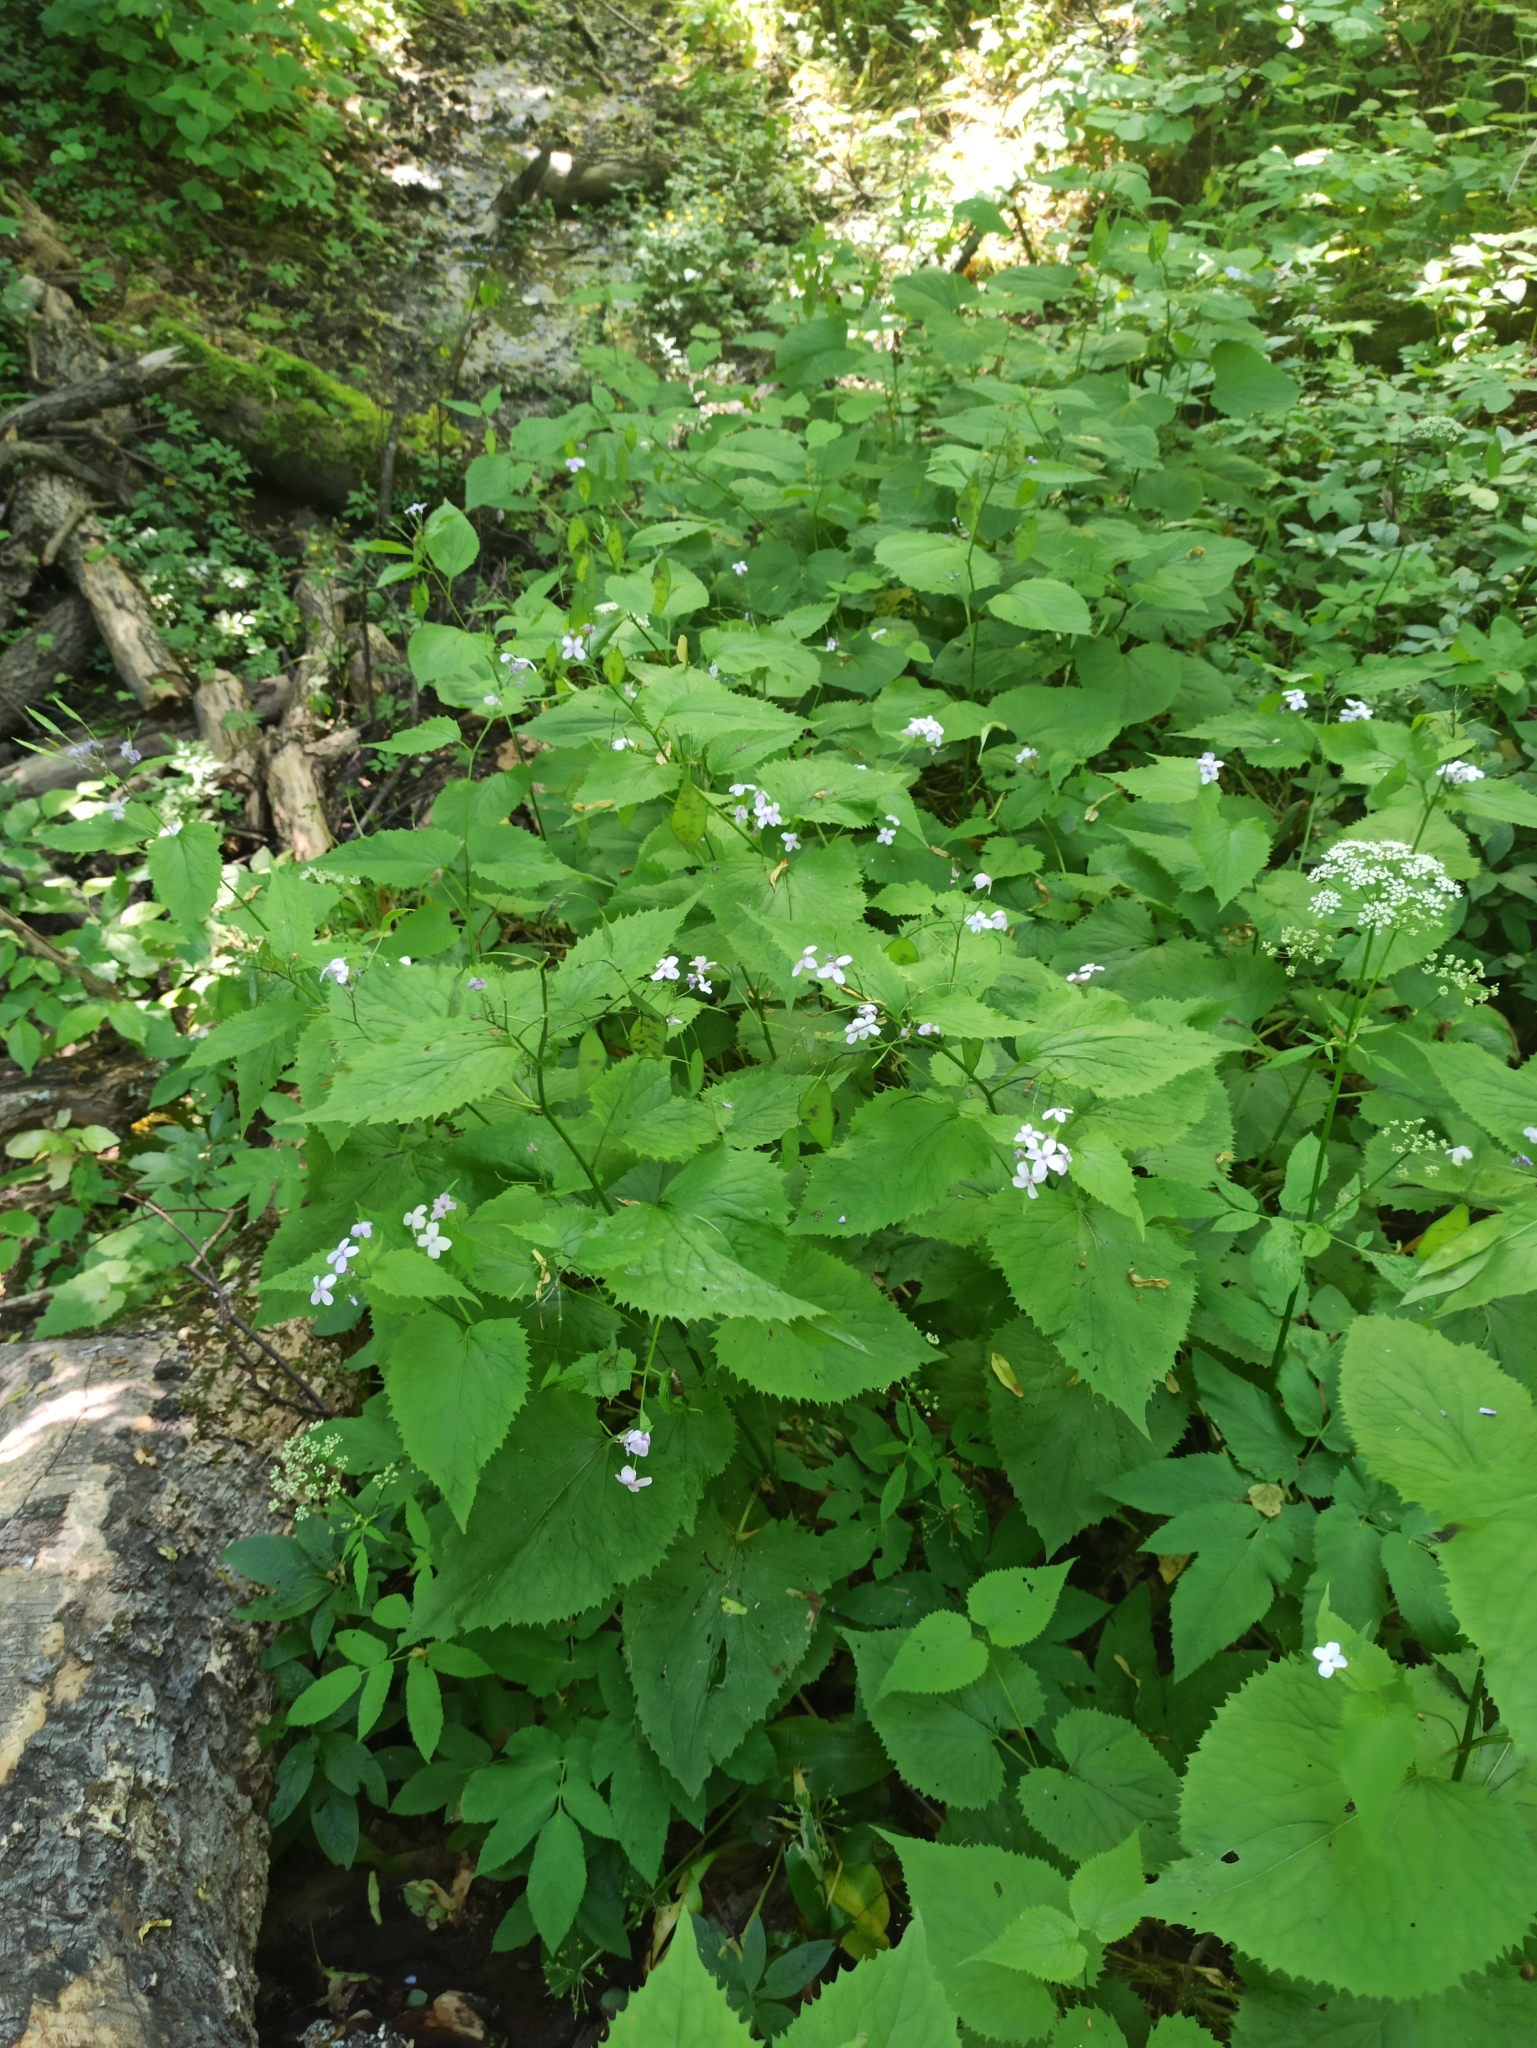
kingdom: Plantae
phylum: Tracheophyta
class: Magnoliopsida
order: Brassicales
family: Brassicaceae
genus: Lunaria
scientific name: Lunaria rediviva
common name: Perennial honesty
